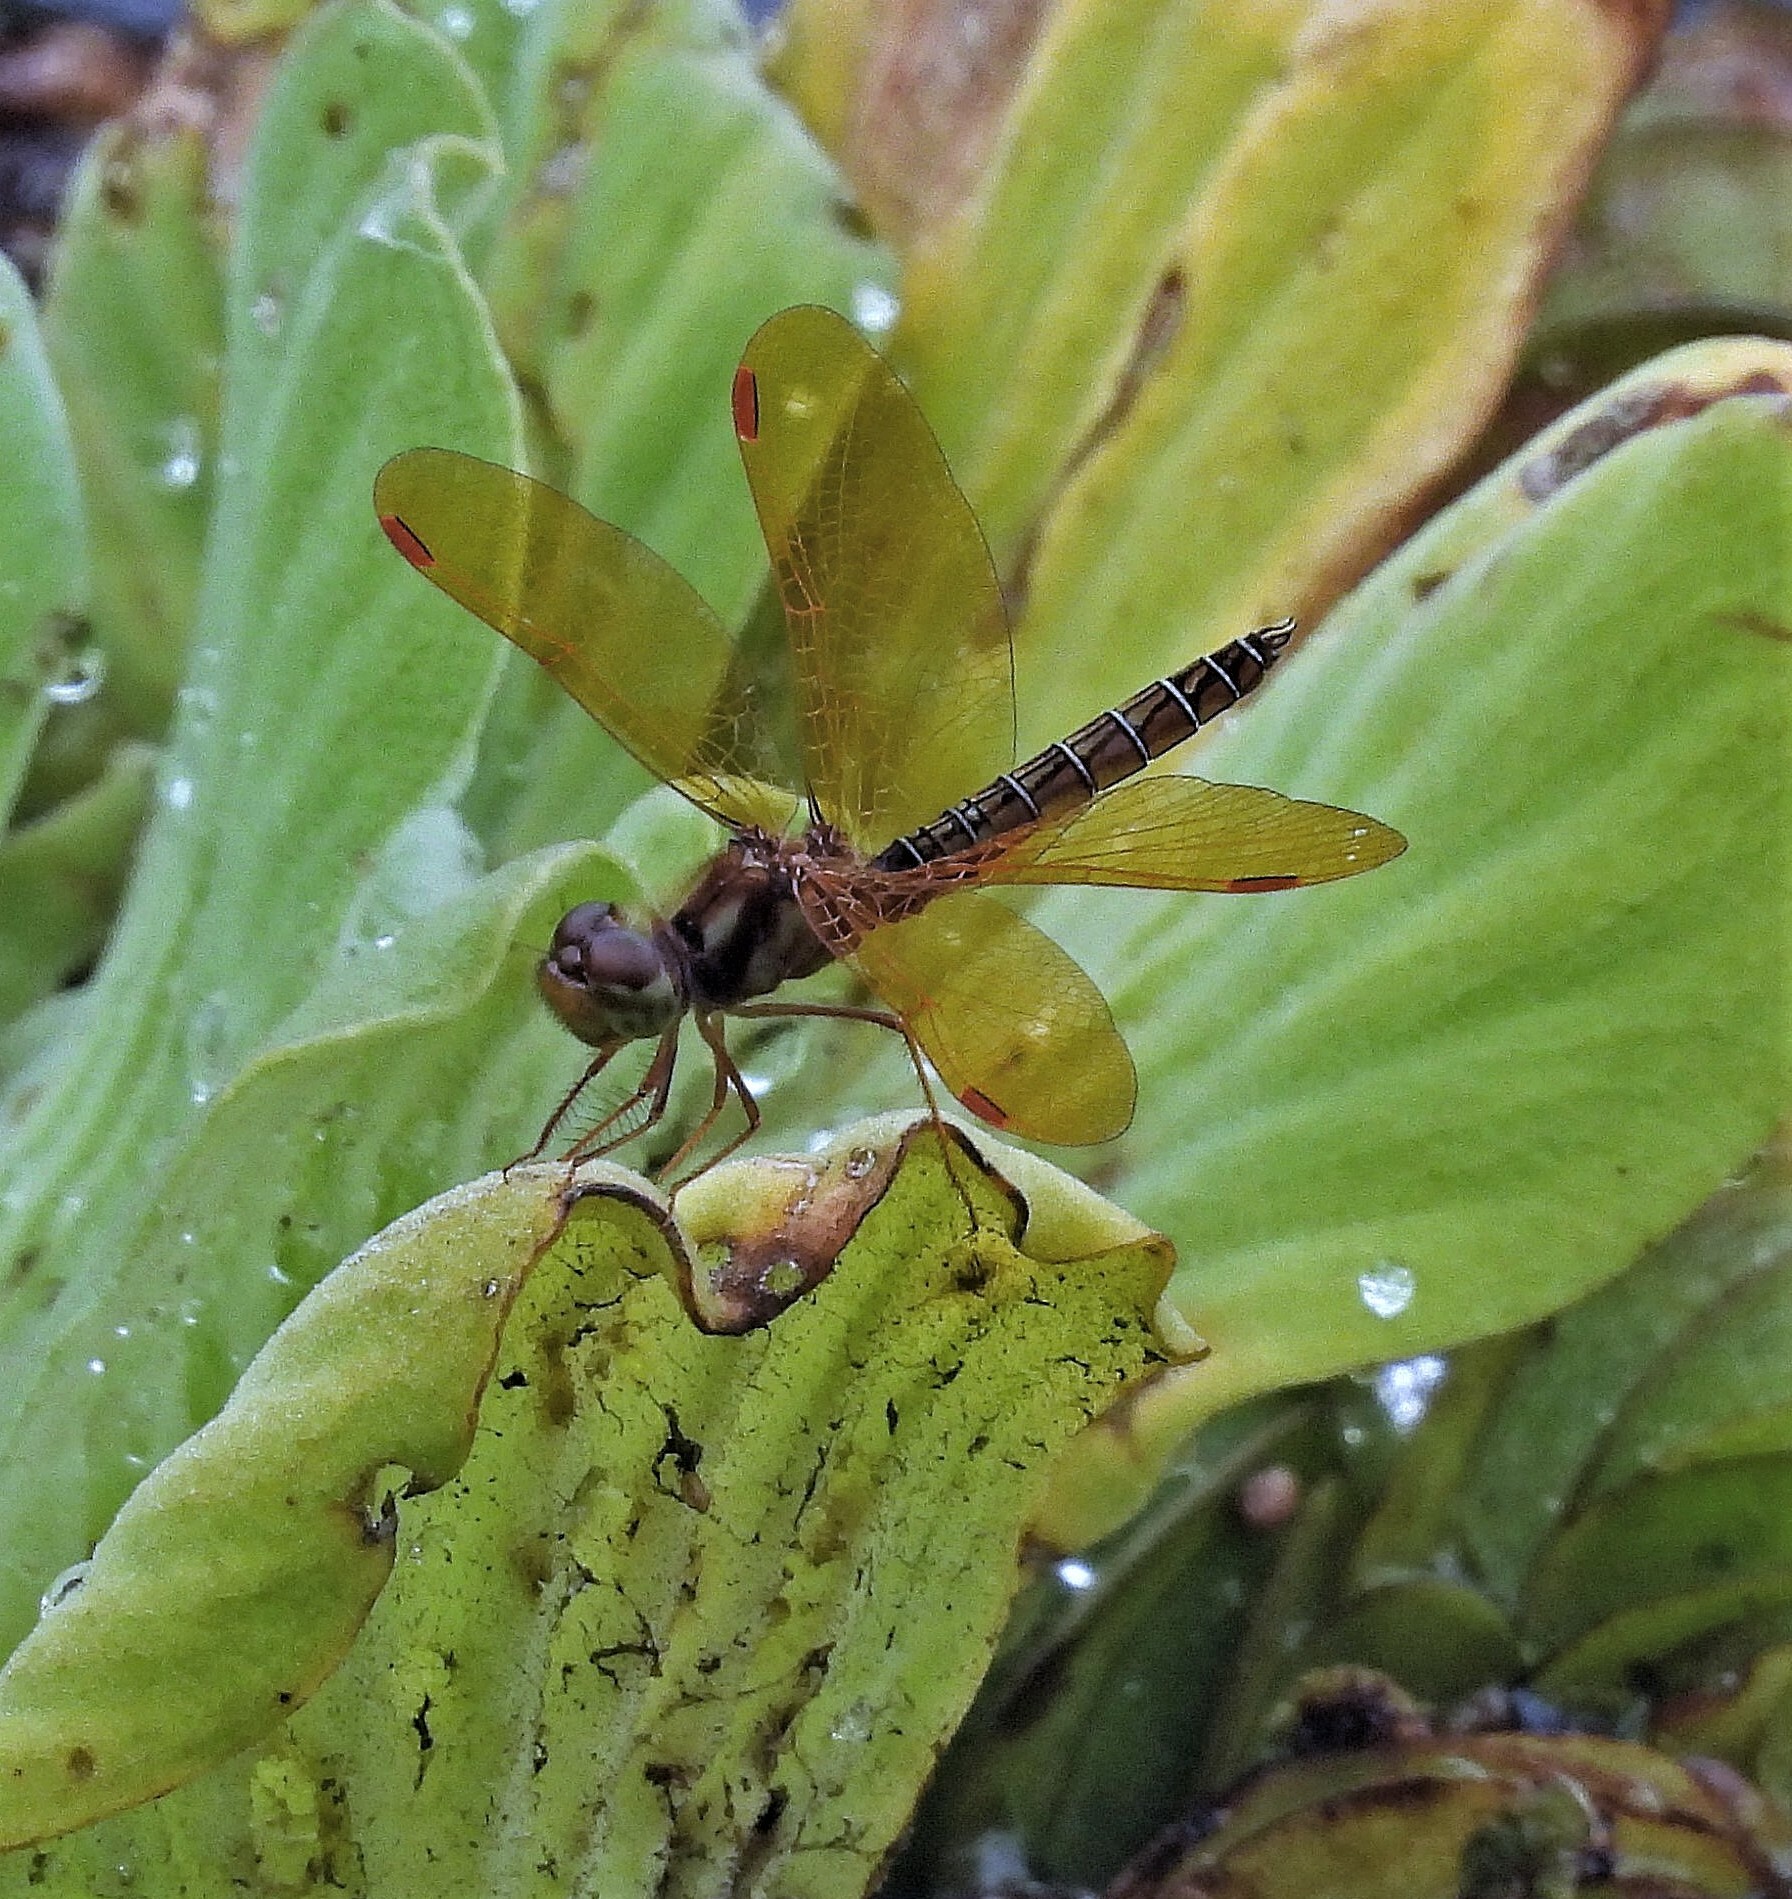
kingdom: Animalia
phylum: Arthropoda
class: Insecta
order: Odonata
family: Libellulidae
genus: Perithemis
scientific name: Perithemis tenera
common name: Eastern amberwing
